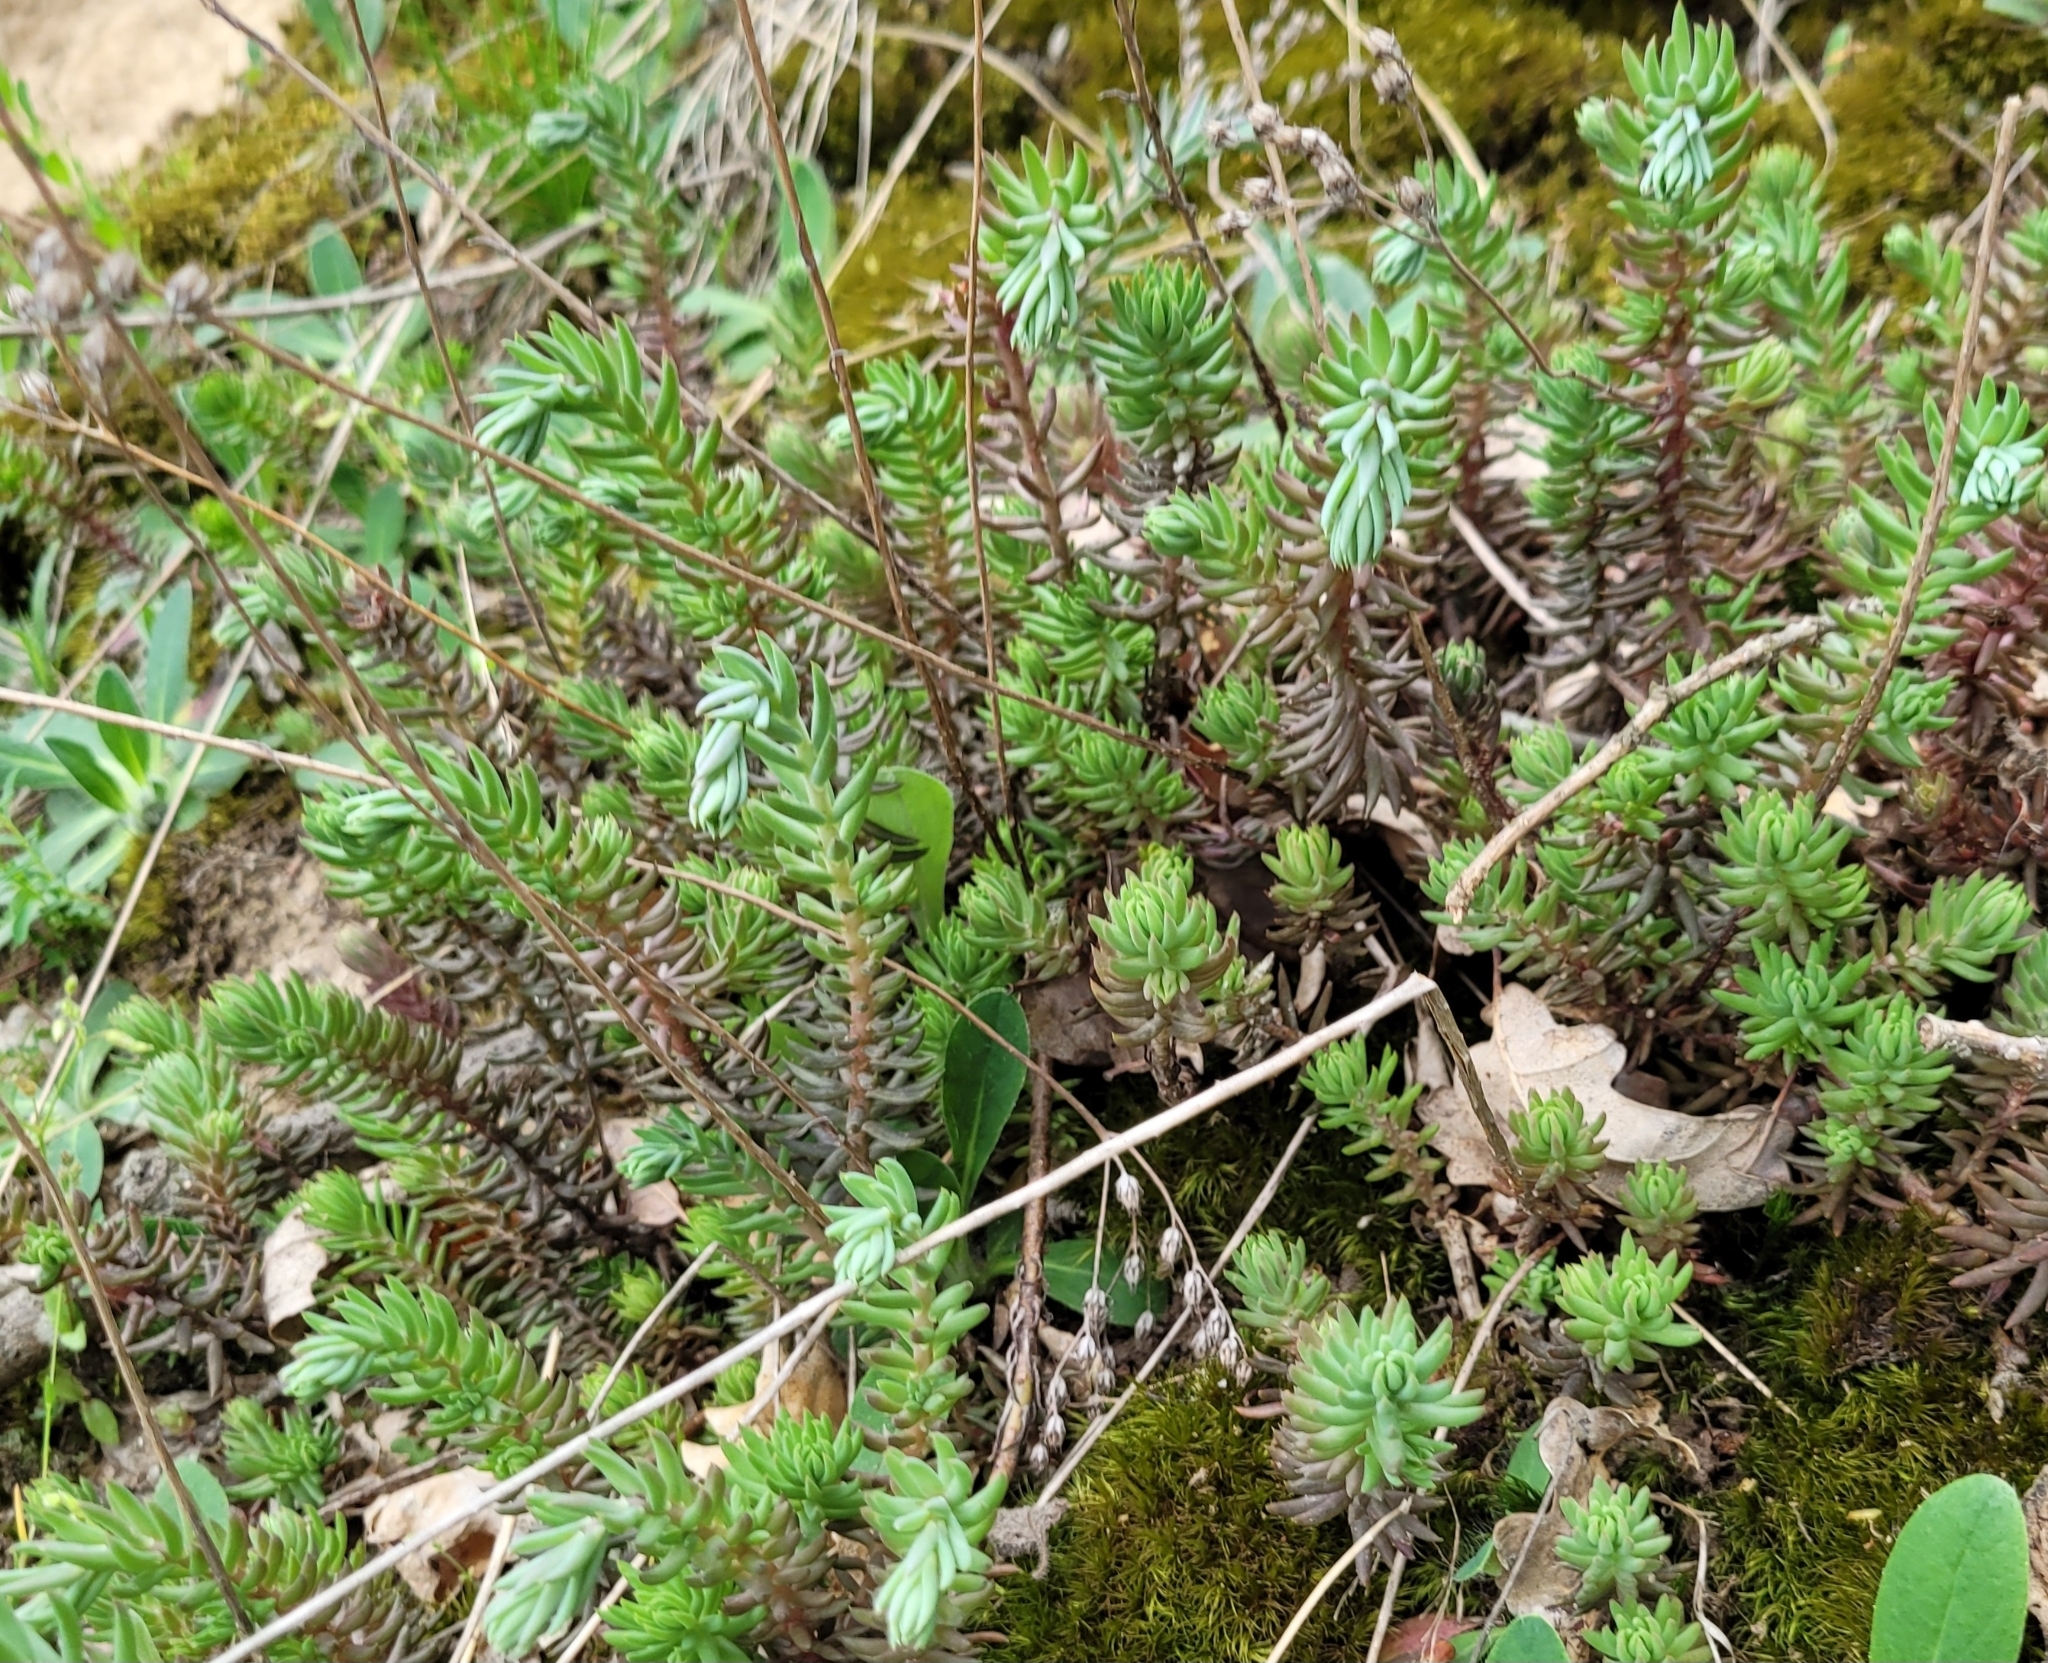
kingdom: Plantae
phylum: Tracheophyta
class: Magnoliopsida
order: Saxifragales
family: Crassulaceae
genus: Petrosedum
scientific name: Petrosedum rupestre
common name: Jenny's stonecrop
